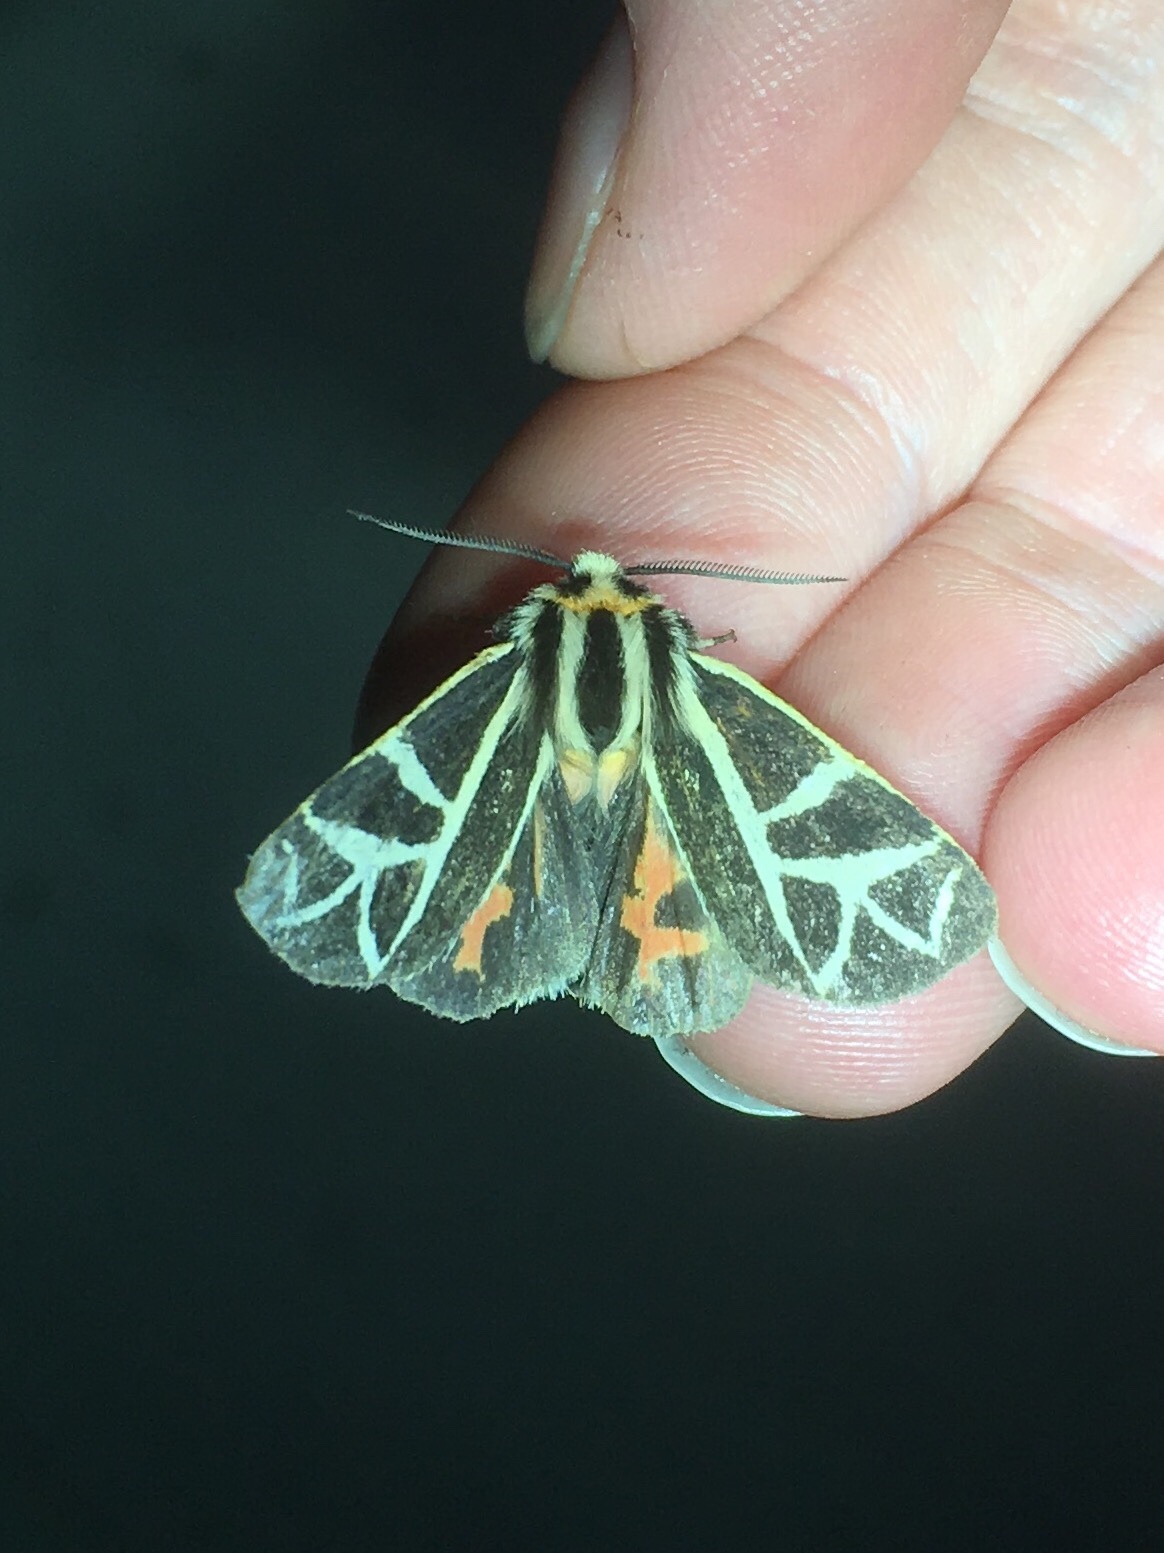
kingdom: Animalia
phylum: Arthropoda
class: Insecta
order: Lepidoptera
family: Erebidae
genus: Apantesis
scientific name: Apantesis
